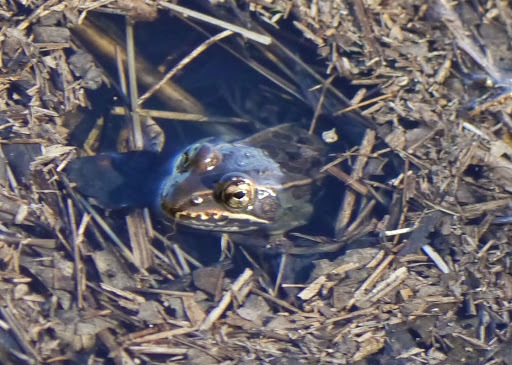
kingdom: Animalia
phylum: Chordata
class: Amphibia
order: Anura
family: Ranidae
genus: Lithobates
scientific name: Lithobates sphenocephalus
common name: Southern leopard frog
